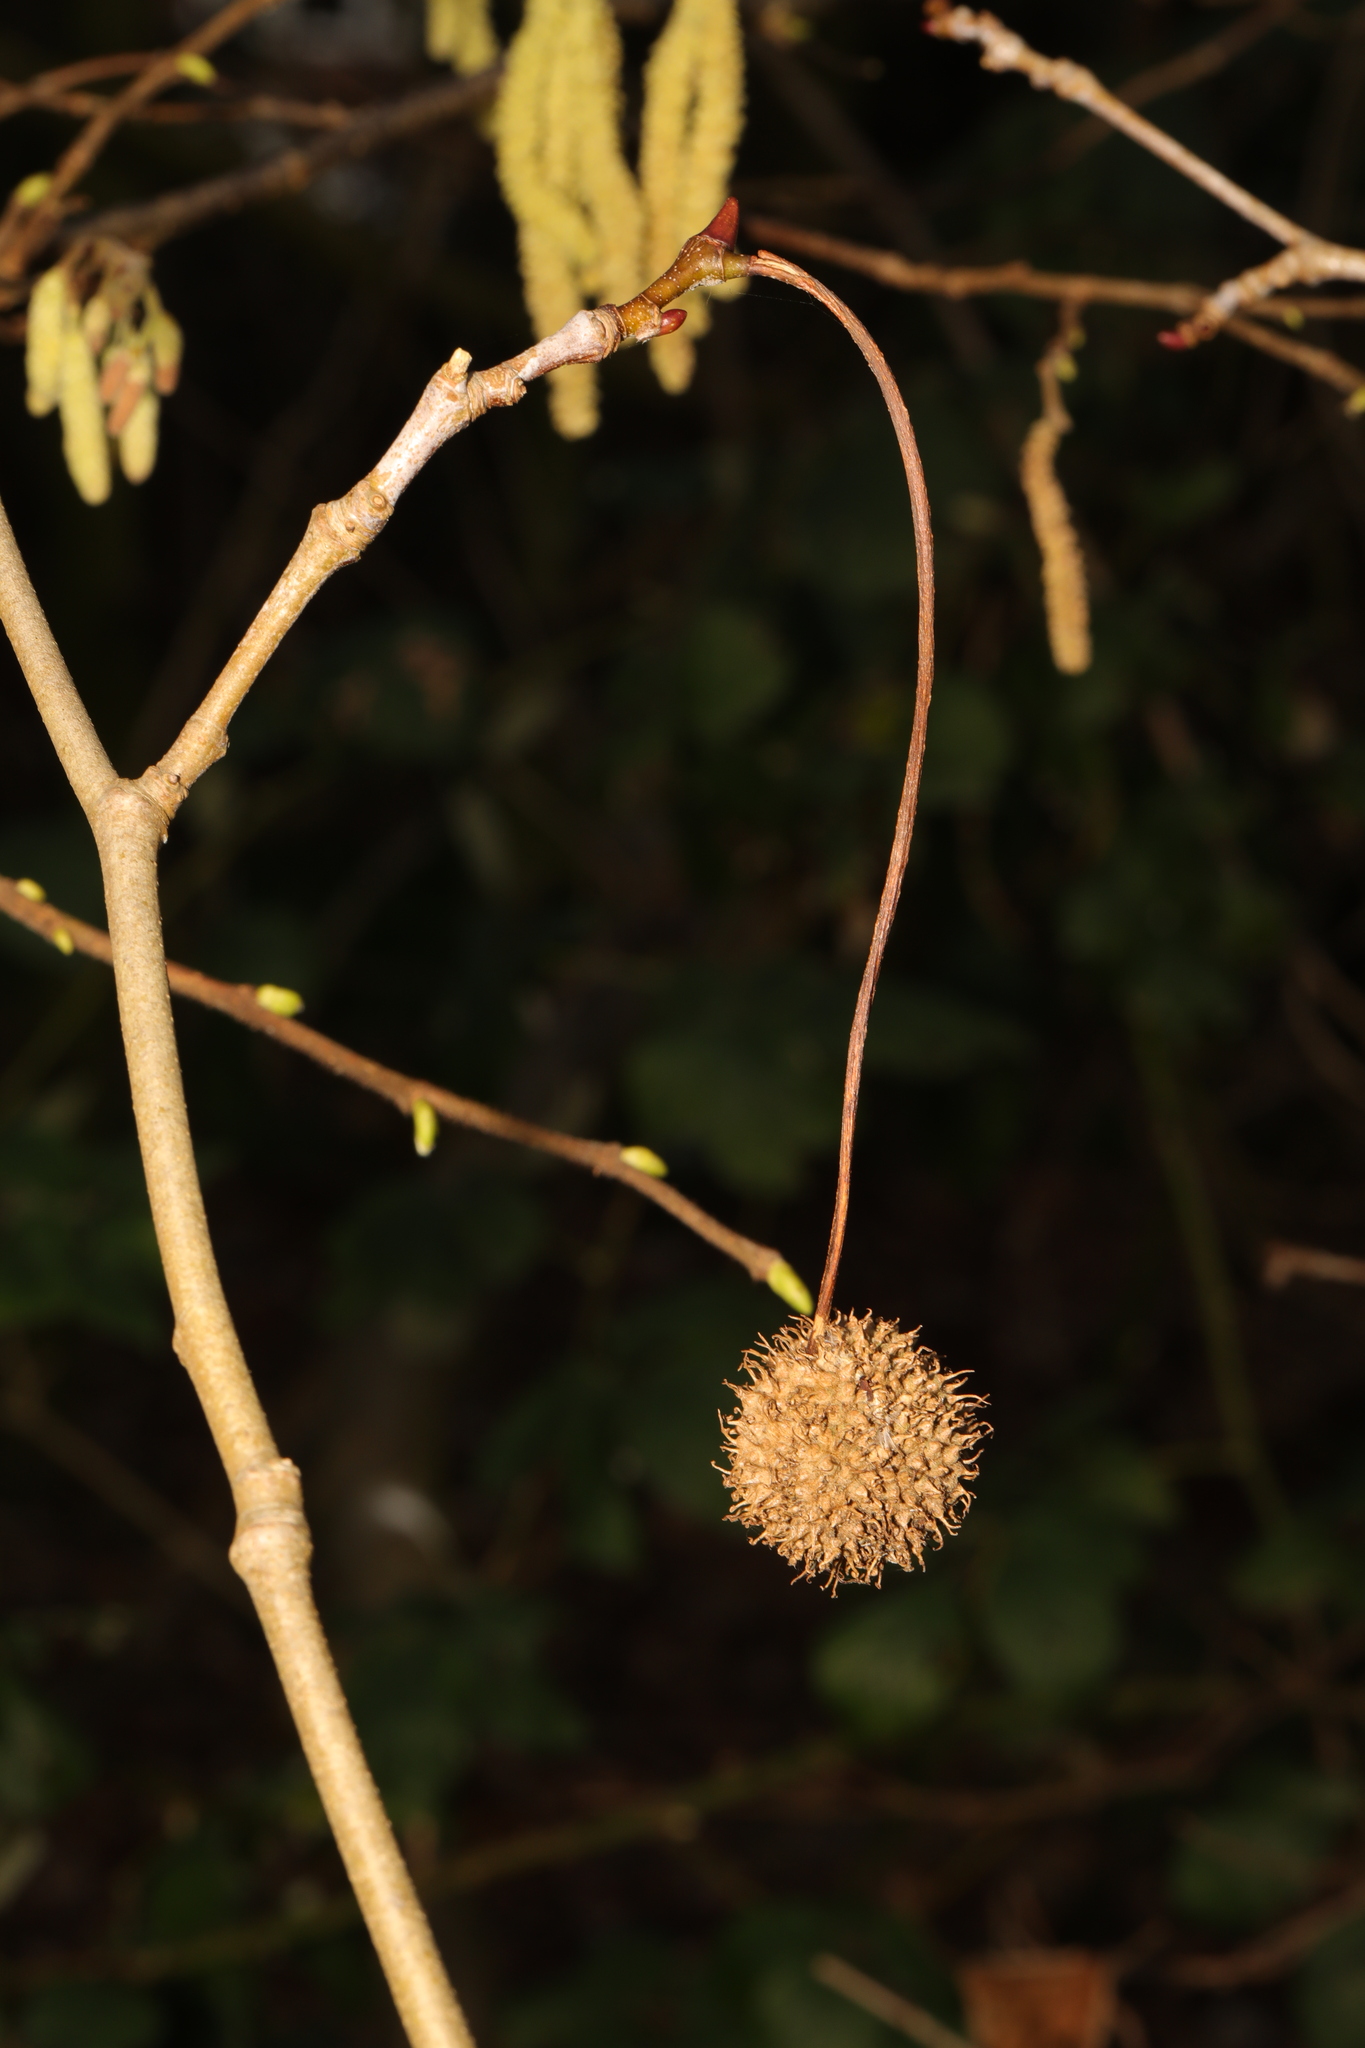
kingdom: Plantae
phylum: Tracheophyta
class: Magnoliopsida
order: Proteales
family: Platanaceae
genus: Platanus
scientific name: Platanus hispanica
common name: London plane
